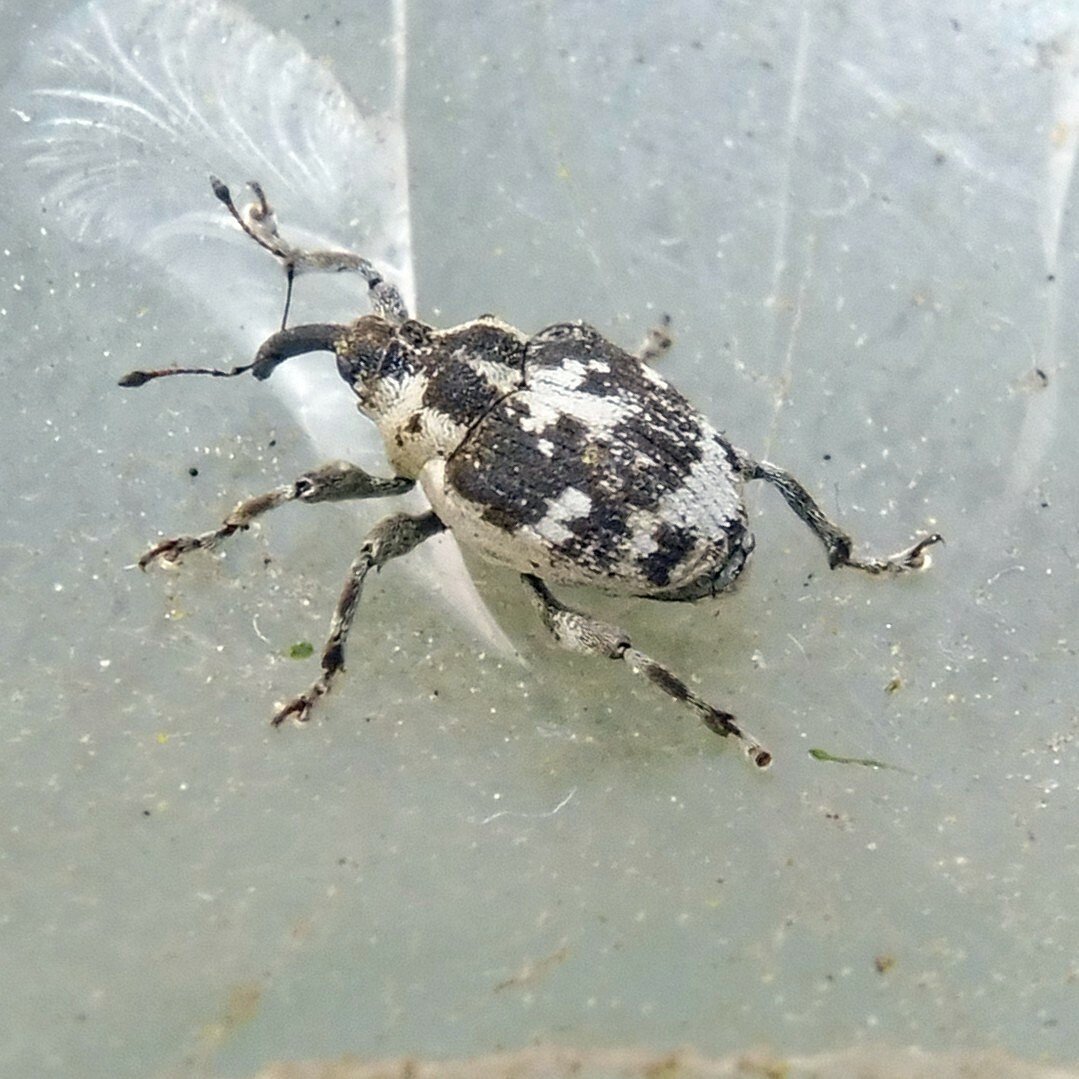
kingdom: Animalia
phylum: Arthropoda
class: Insecta
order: Coleoptera
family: Curculionidae
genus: Hadroplontus
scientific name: Hadroplontus litura
